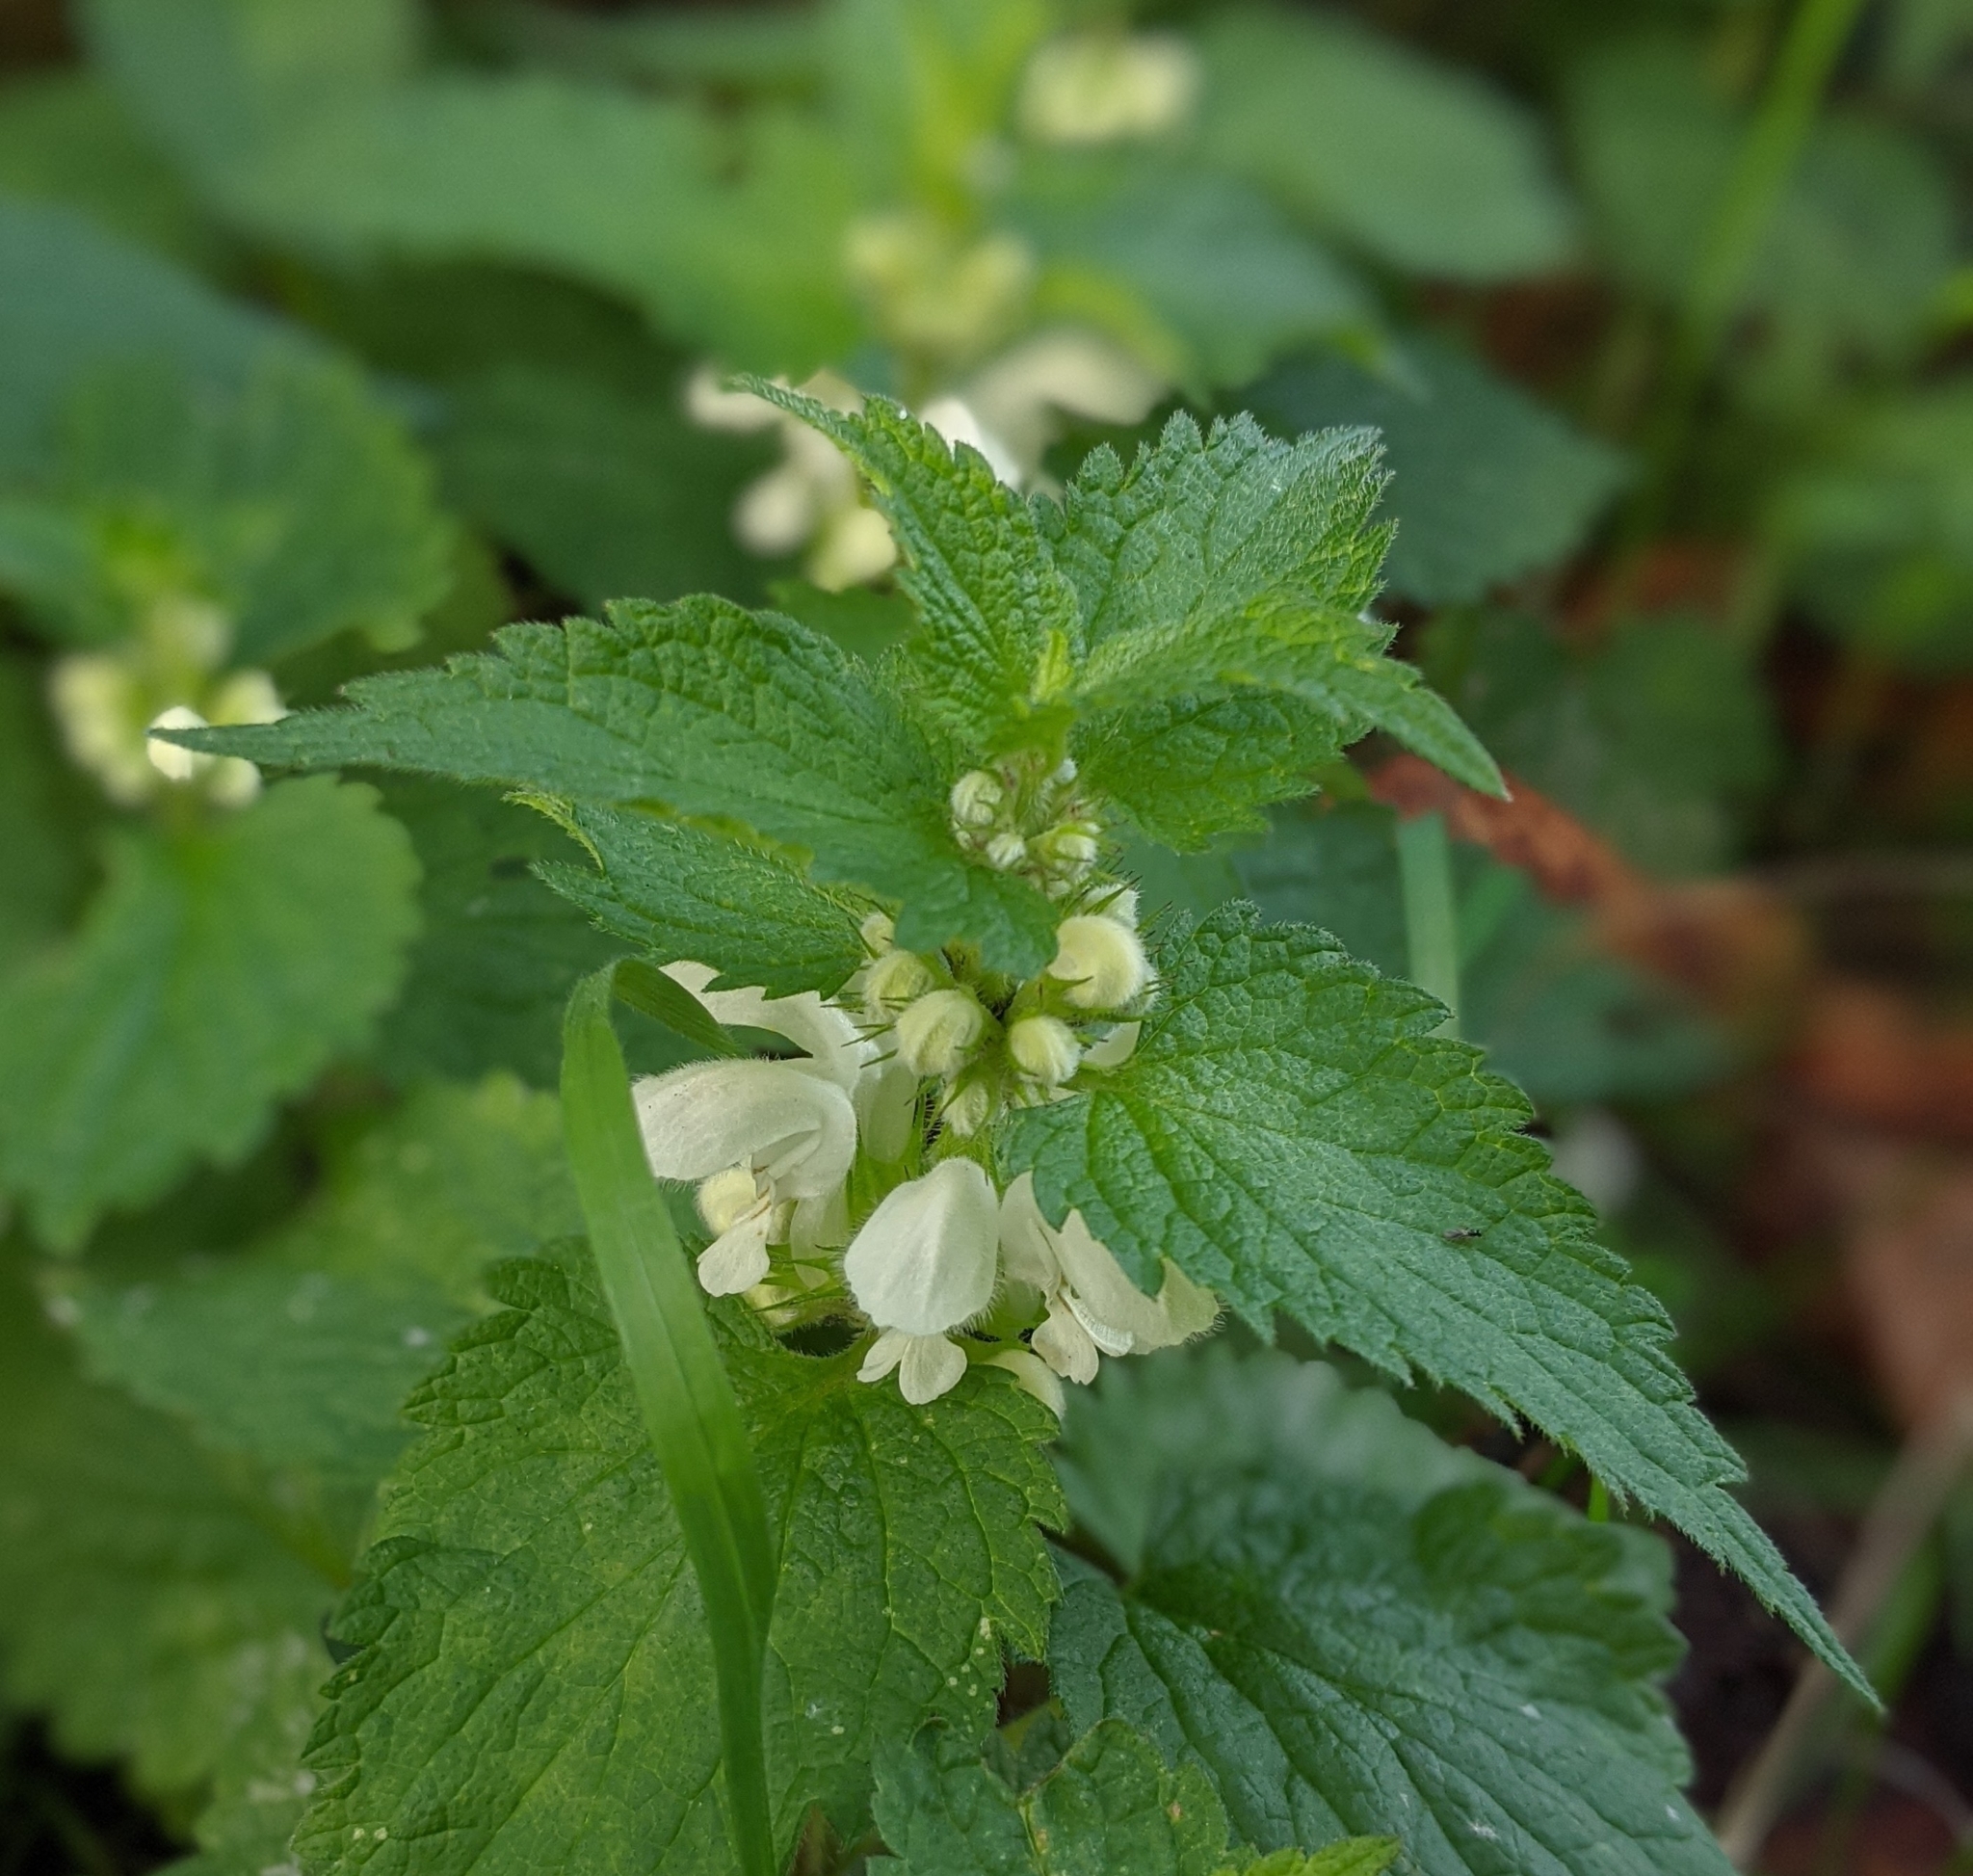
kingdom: Plantae
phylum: Tracheophyta
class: Magnoliopsida
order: Lamiales
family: Lamiaceae
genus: Lamium
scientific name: Lamium album
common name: White dead-nettle
